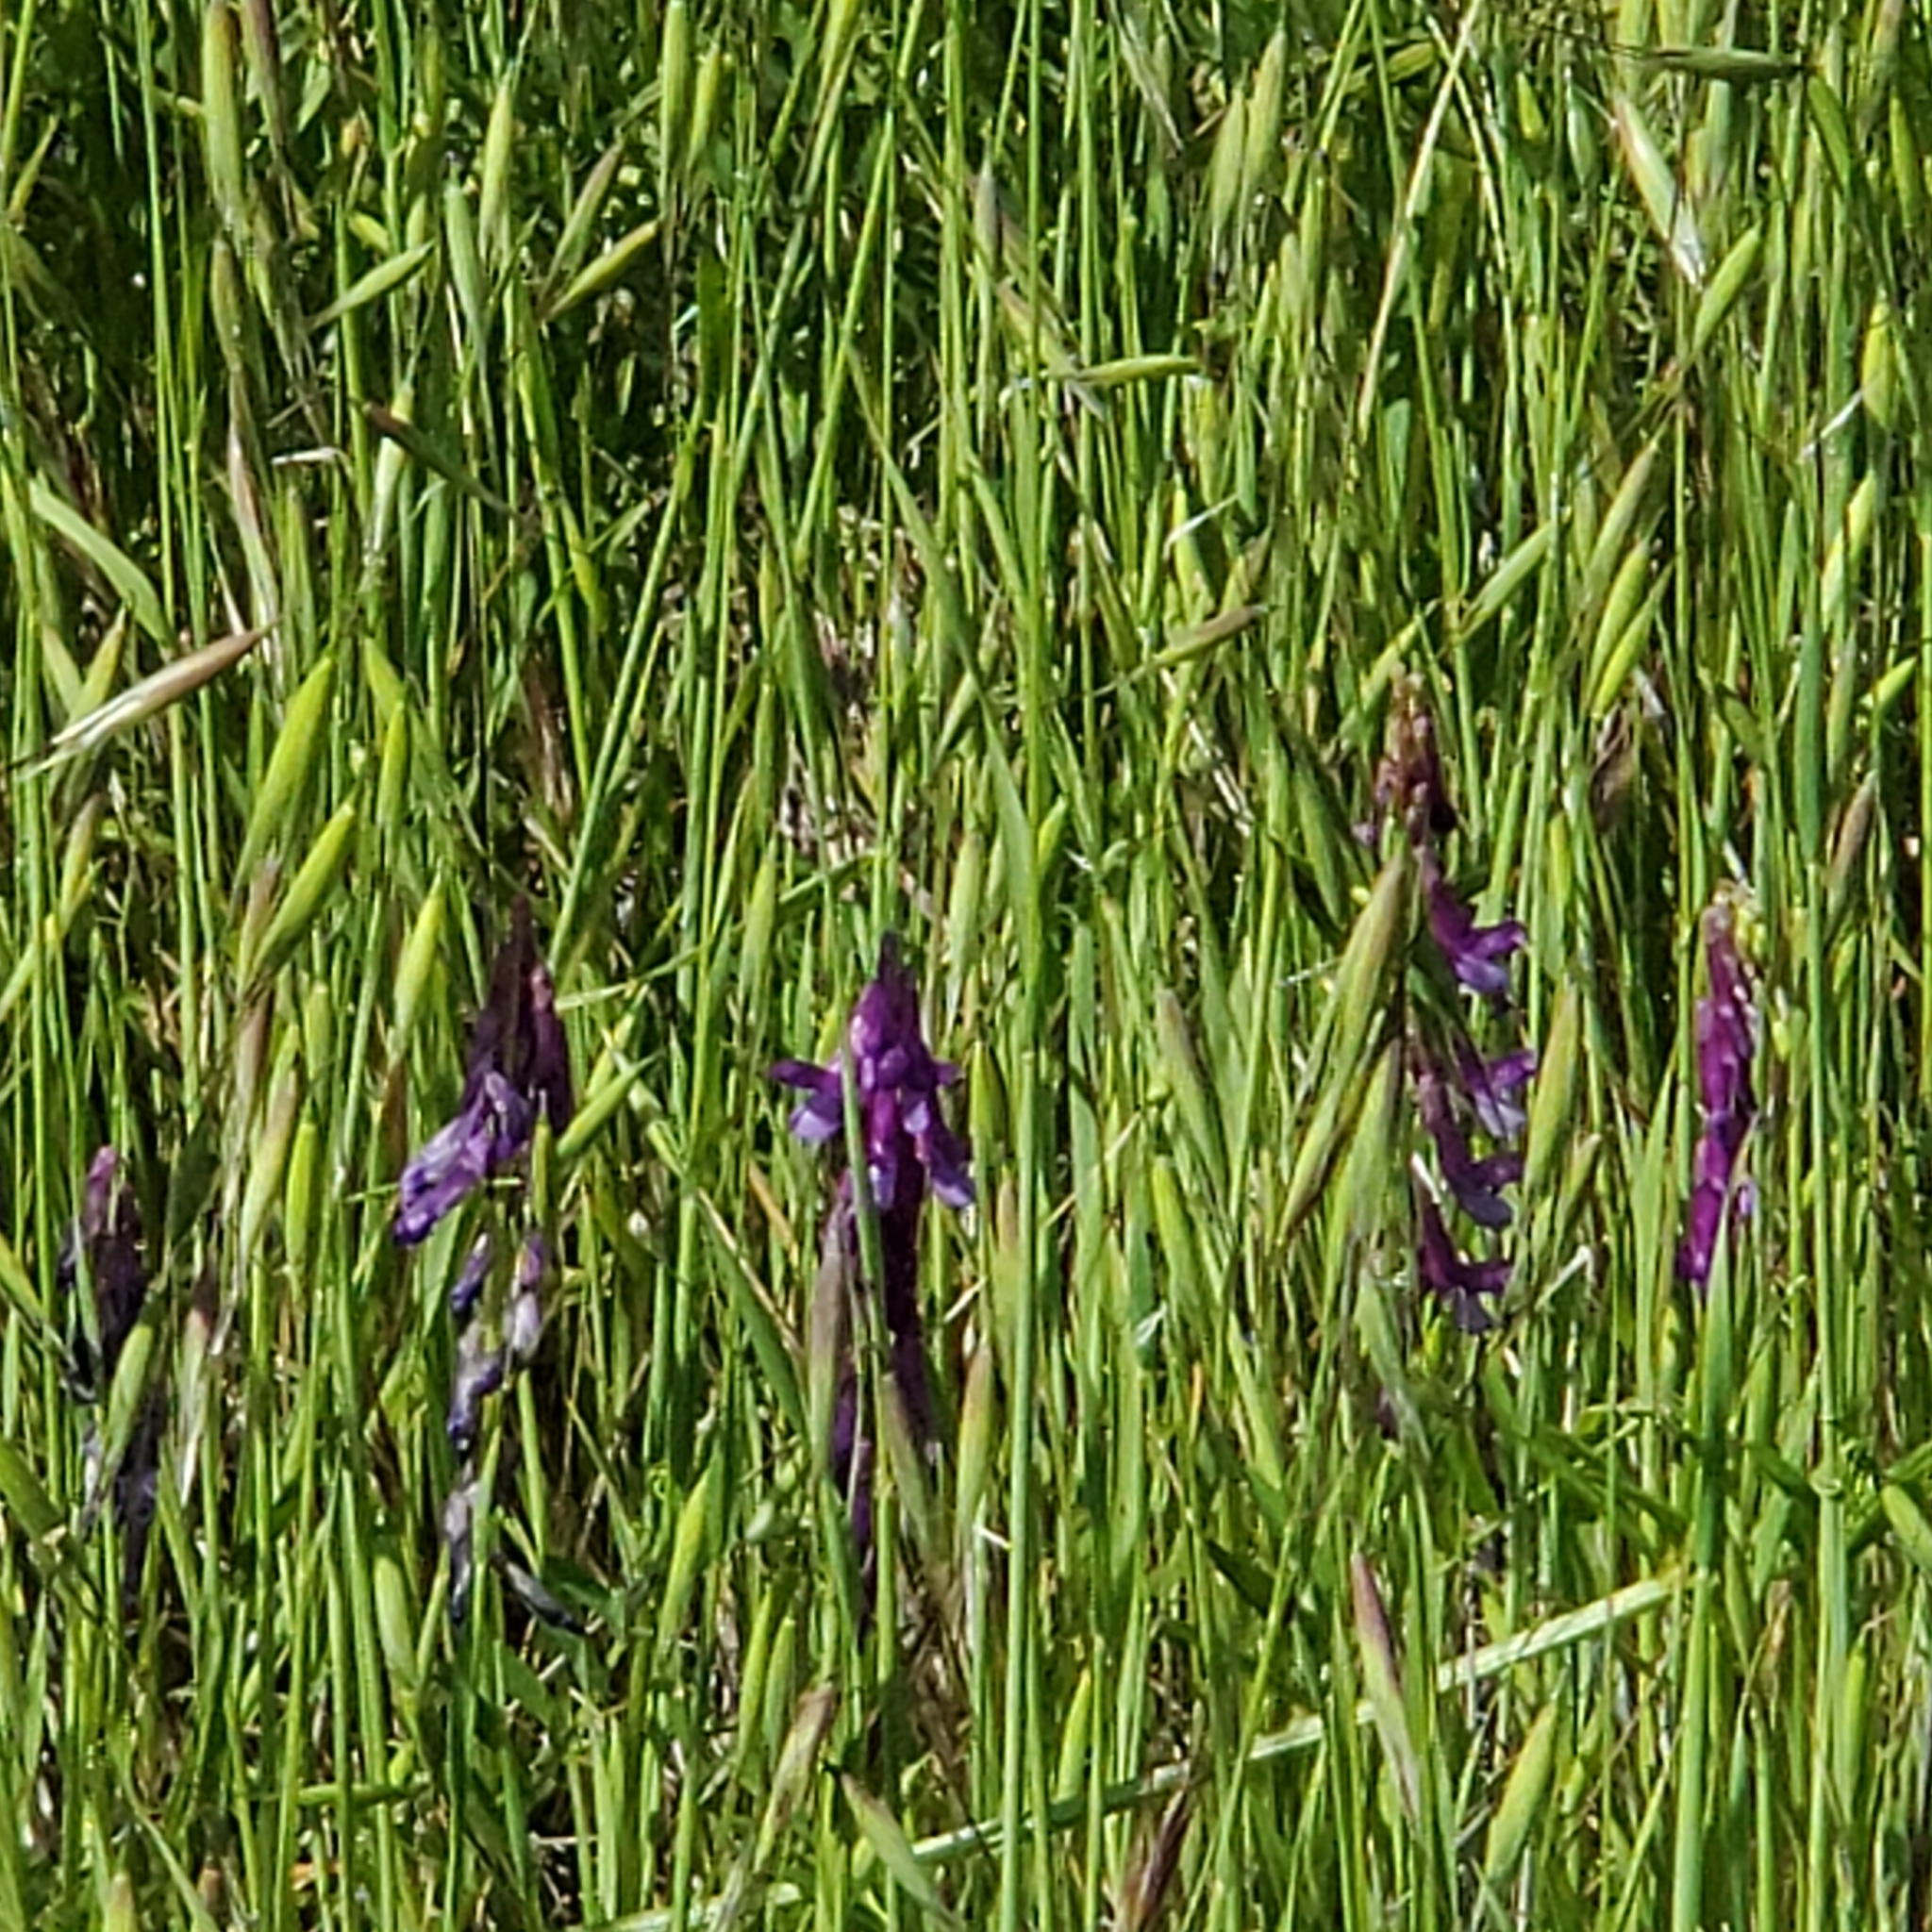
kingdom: Plantae
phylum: Tracheophyta
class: Magnoliopsida
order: Fabales
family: Fabaceae
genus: Vicia
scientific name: Vicia villosa
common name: Fodder vetch
